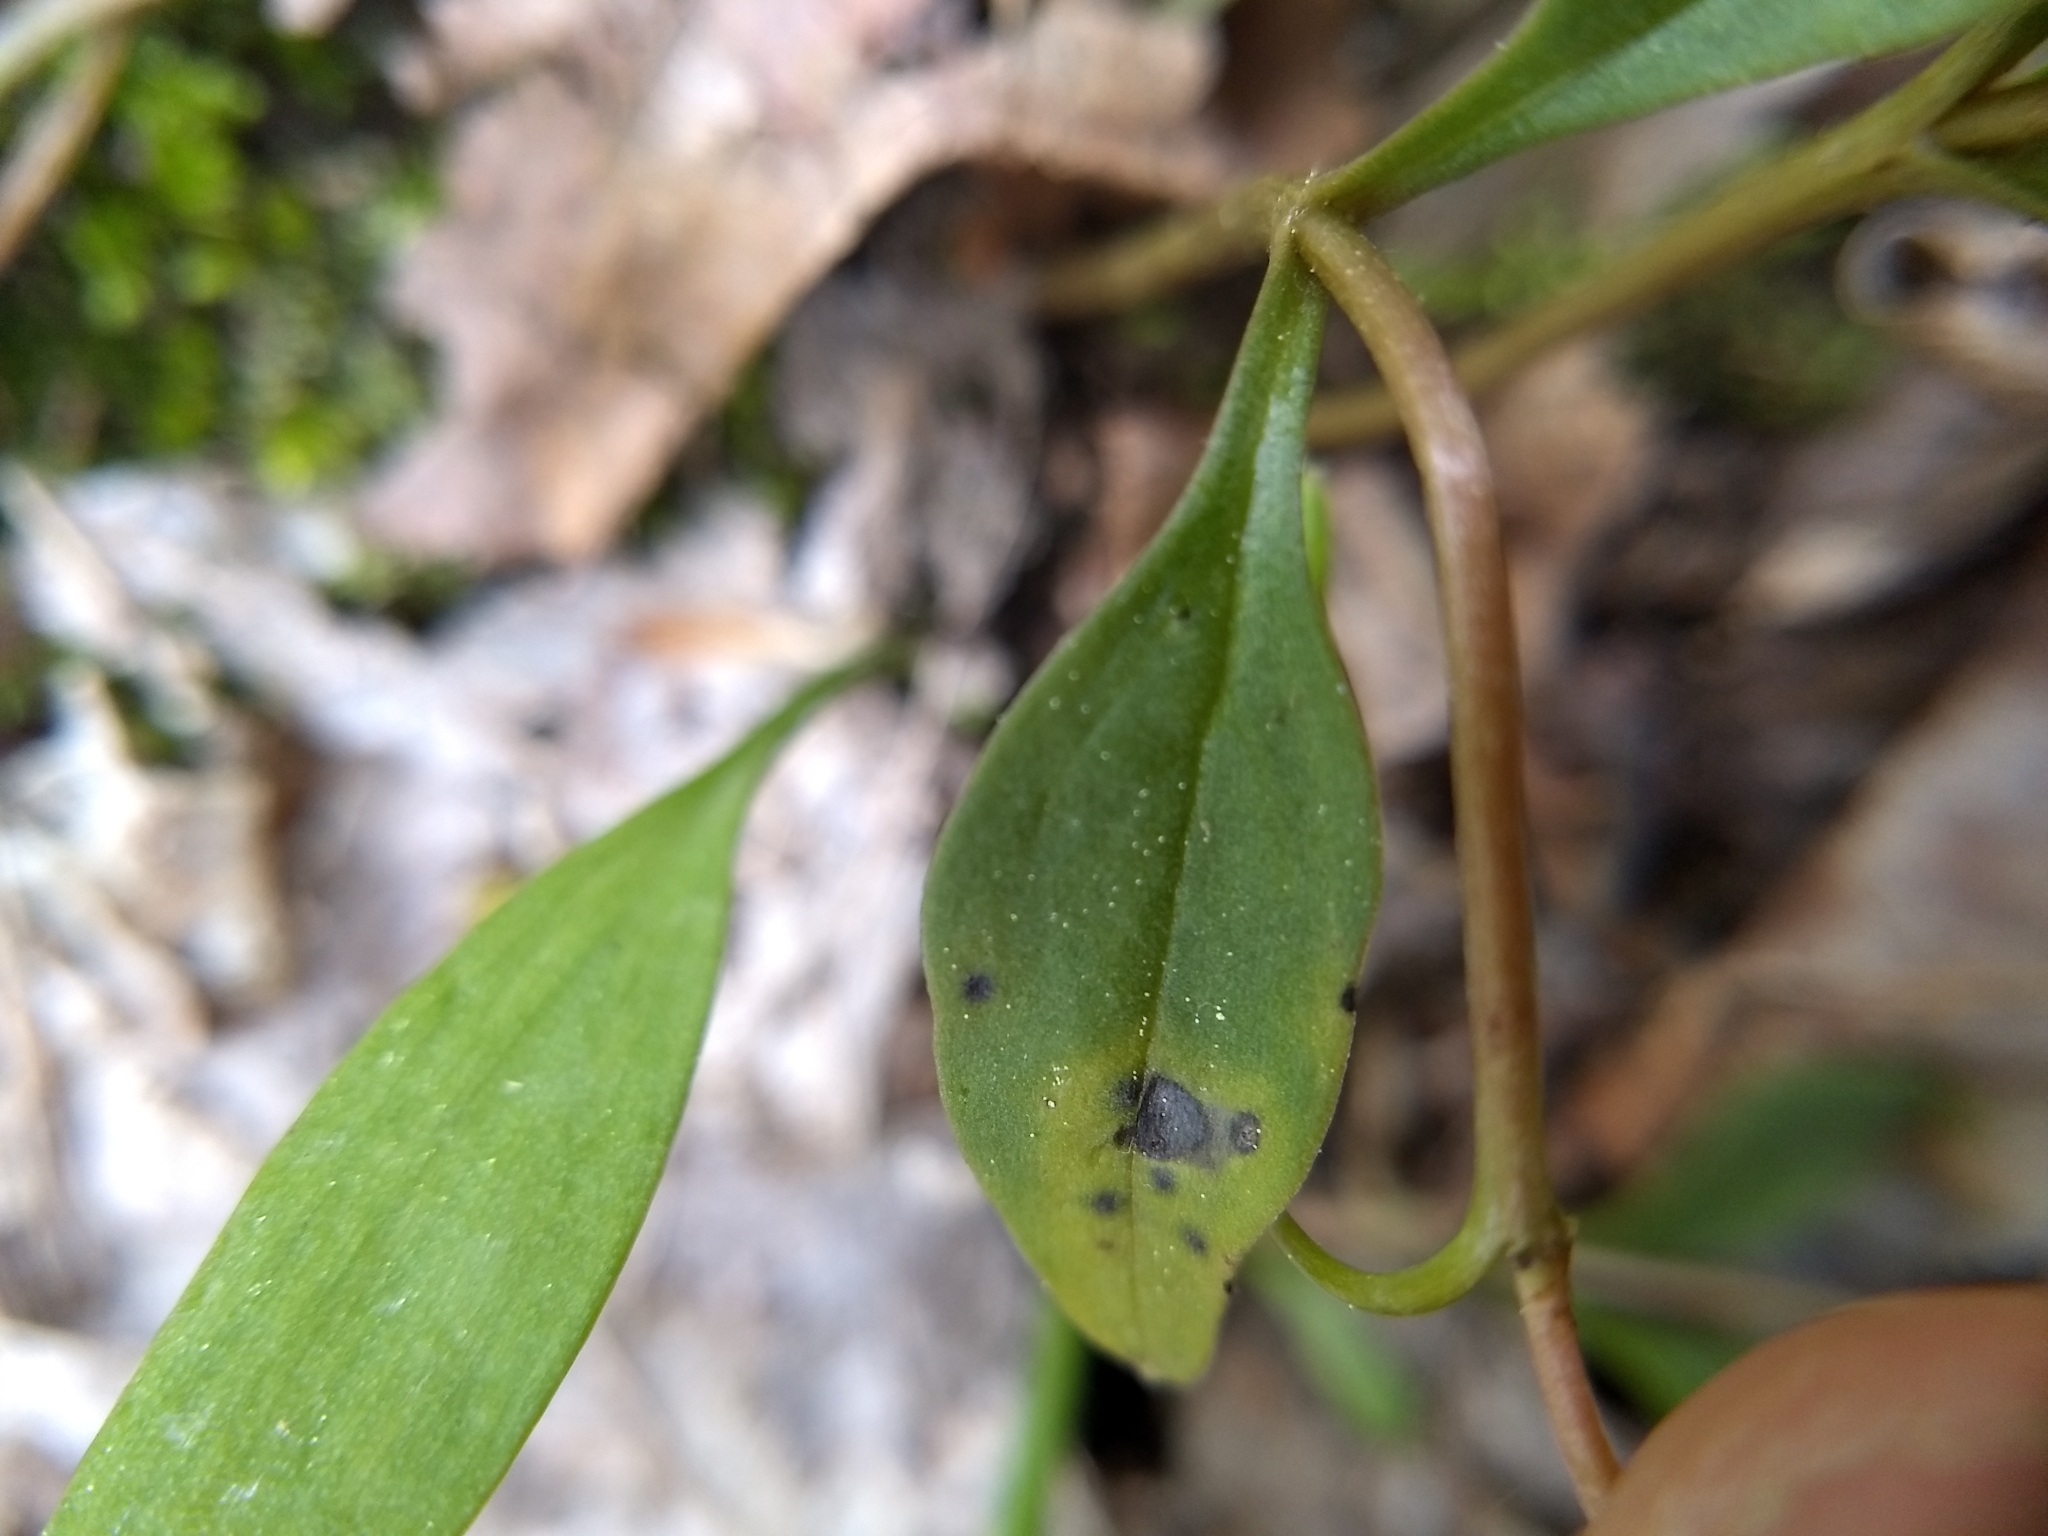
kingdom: Plantae
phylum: Tracheophyta
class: Magnoliopsida
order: Caryophyllales
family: Montiaceae
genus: Claytonia
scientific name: Claytonia caroliniana
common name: Carolina spring beauty
